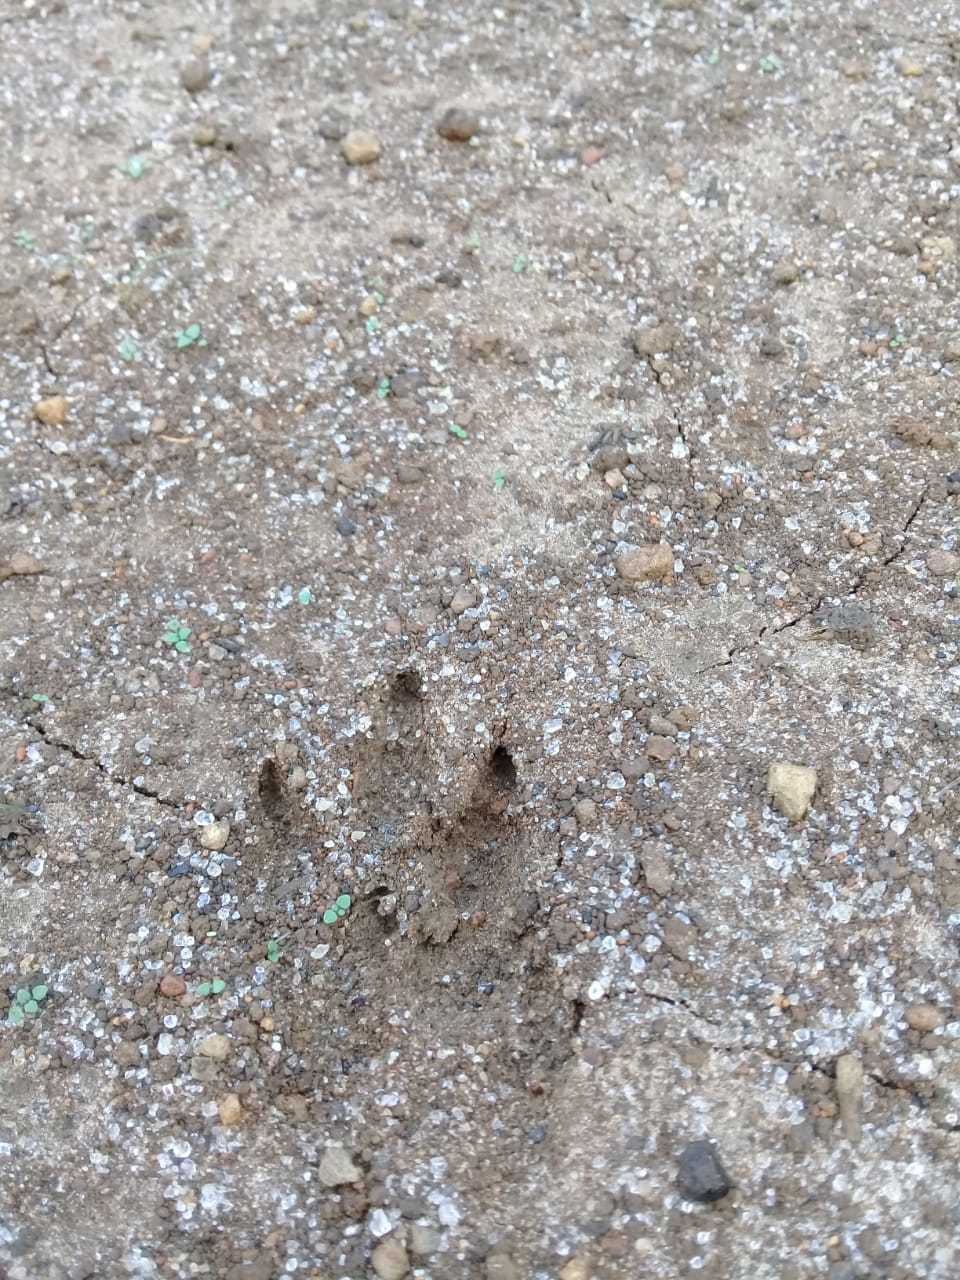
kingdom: Animalia
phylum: Chordata
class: Mammalia
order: Rodentia
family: Cuniculidae
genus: Cuniculus
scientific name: Cuniculus paca
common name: Lowland paca
